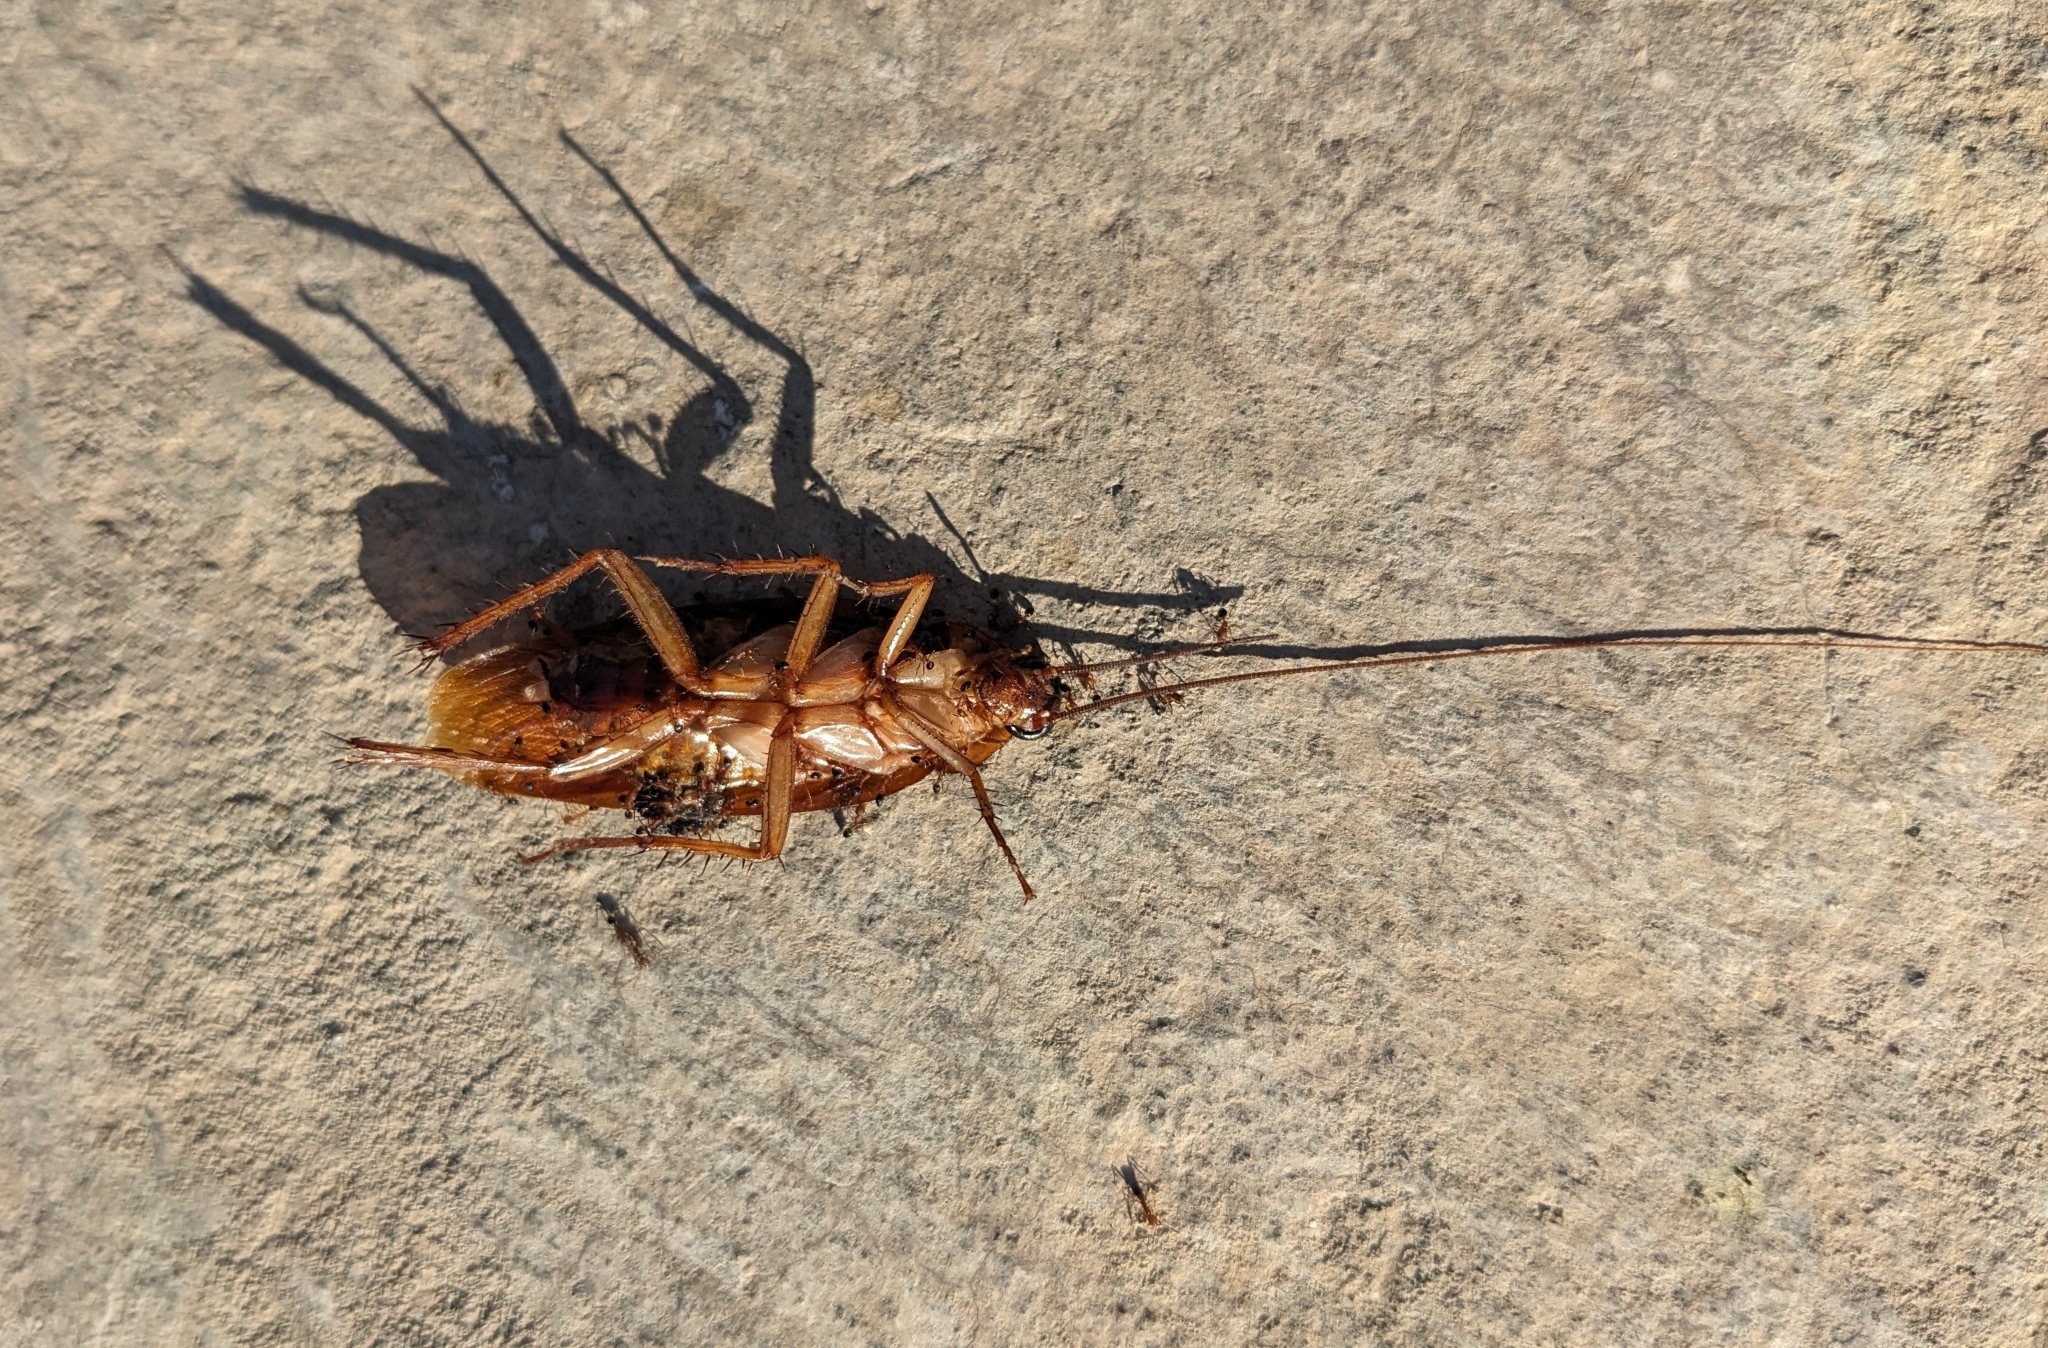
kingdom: Animalia
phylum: Arthropoda
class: Insecta
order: Blattodea
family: Blattidae
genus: Periplaneta
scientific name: Periplaneta americana
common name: American cockroach
